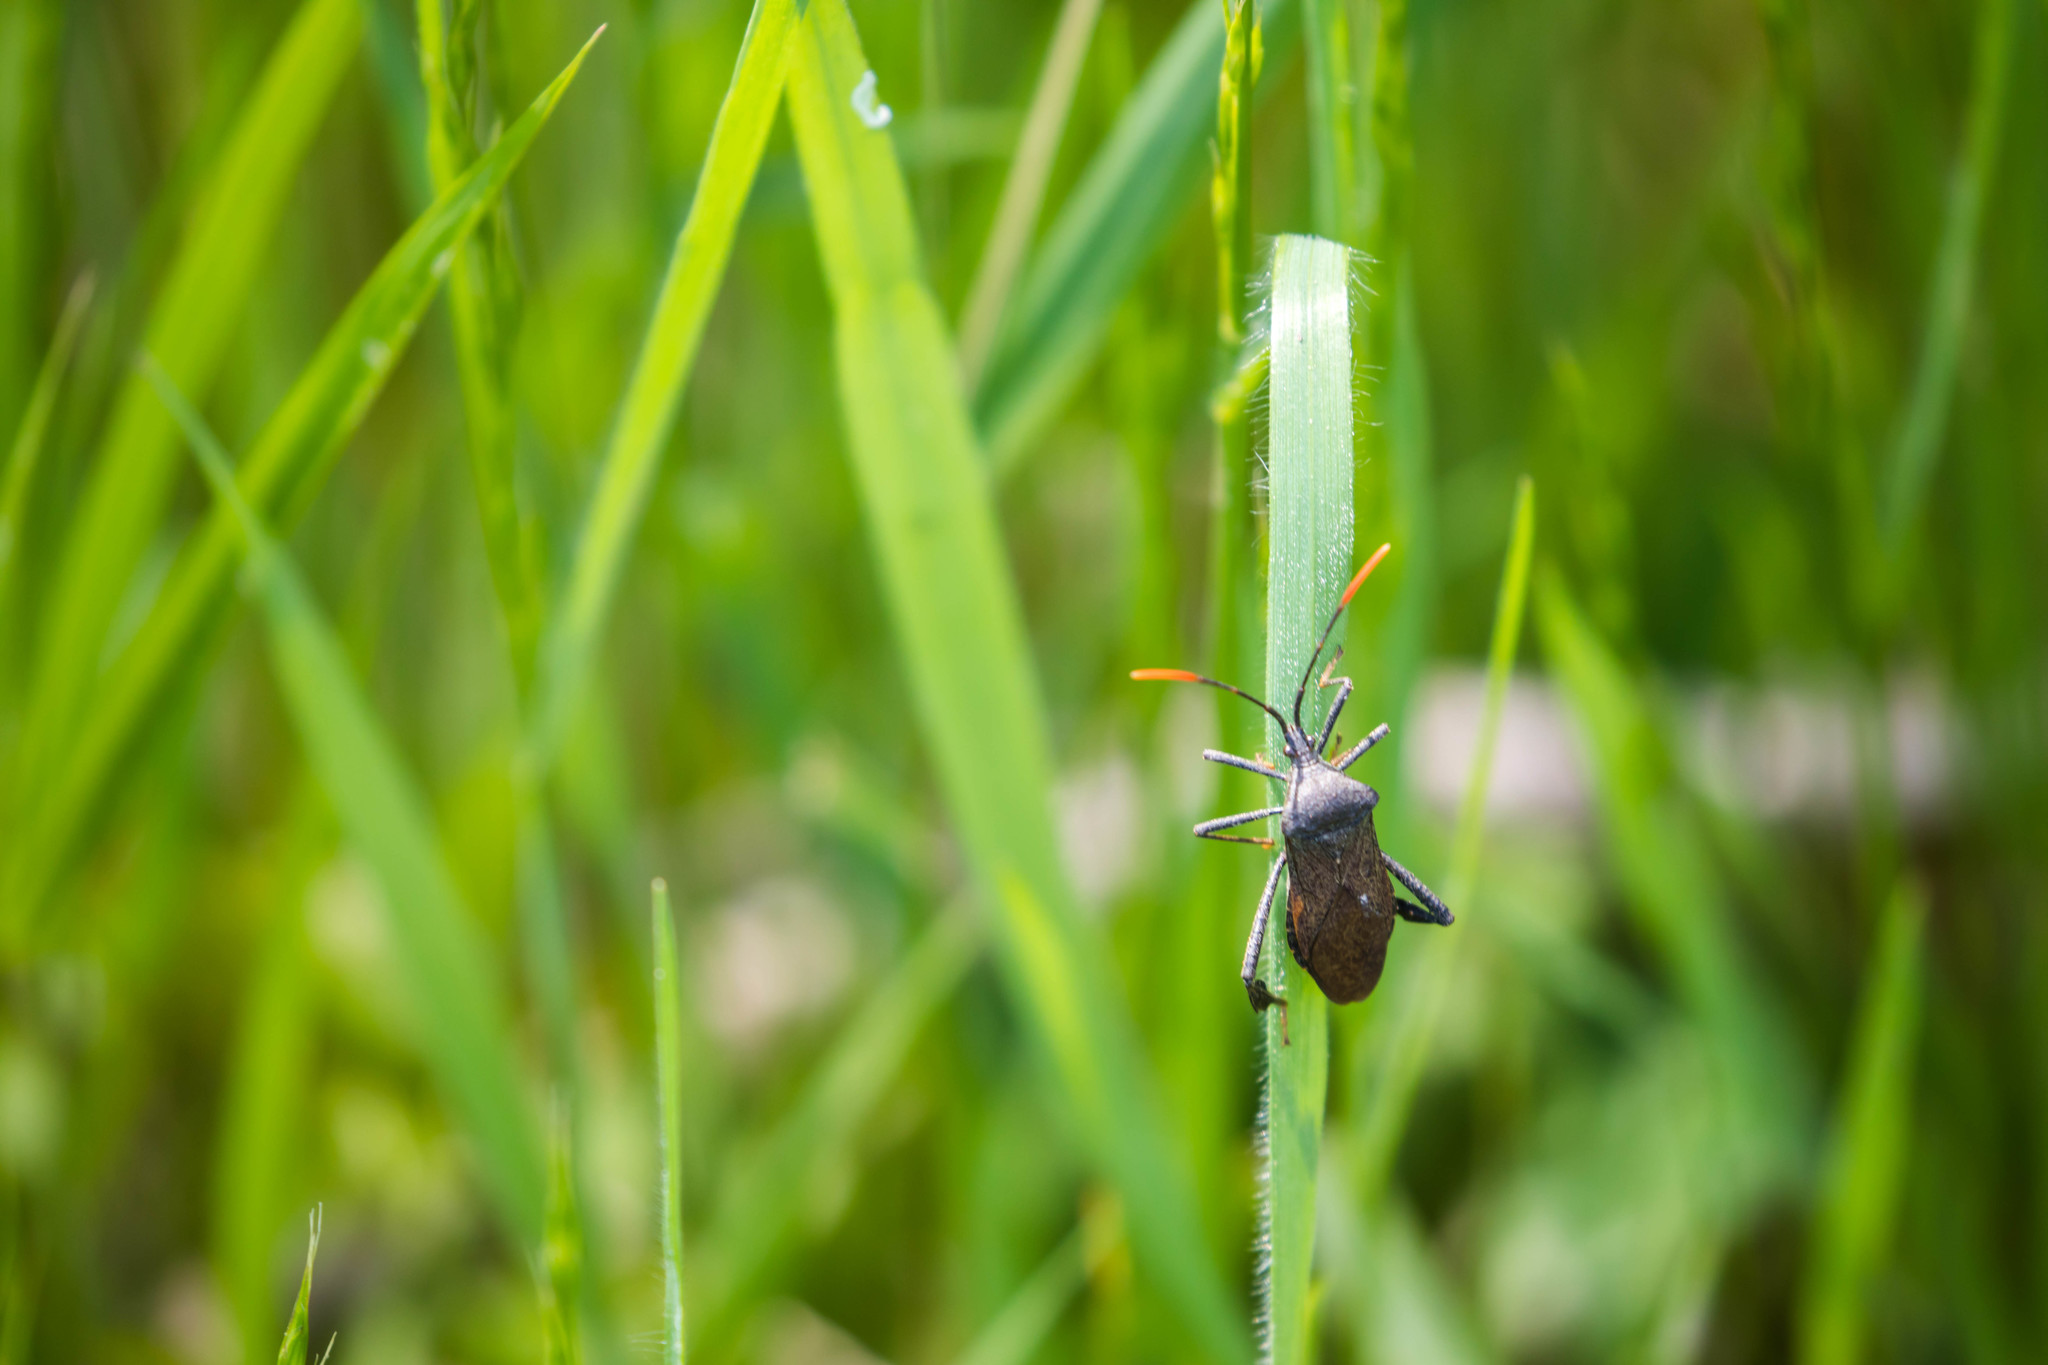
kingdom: Animalia
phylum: Arthropoda
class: Insecta
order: Hemiptera
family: Coreidae
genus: Acanthocephala
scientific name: Acanthocephala terminalis
